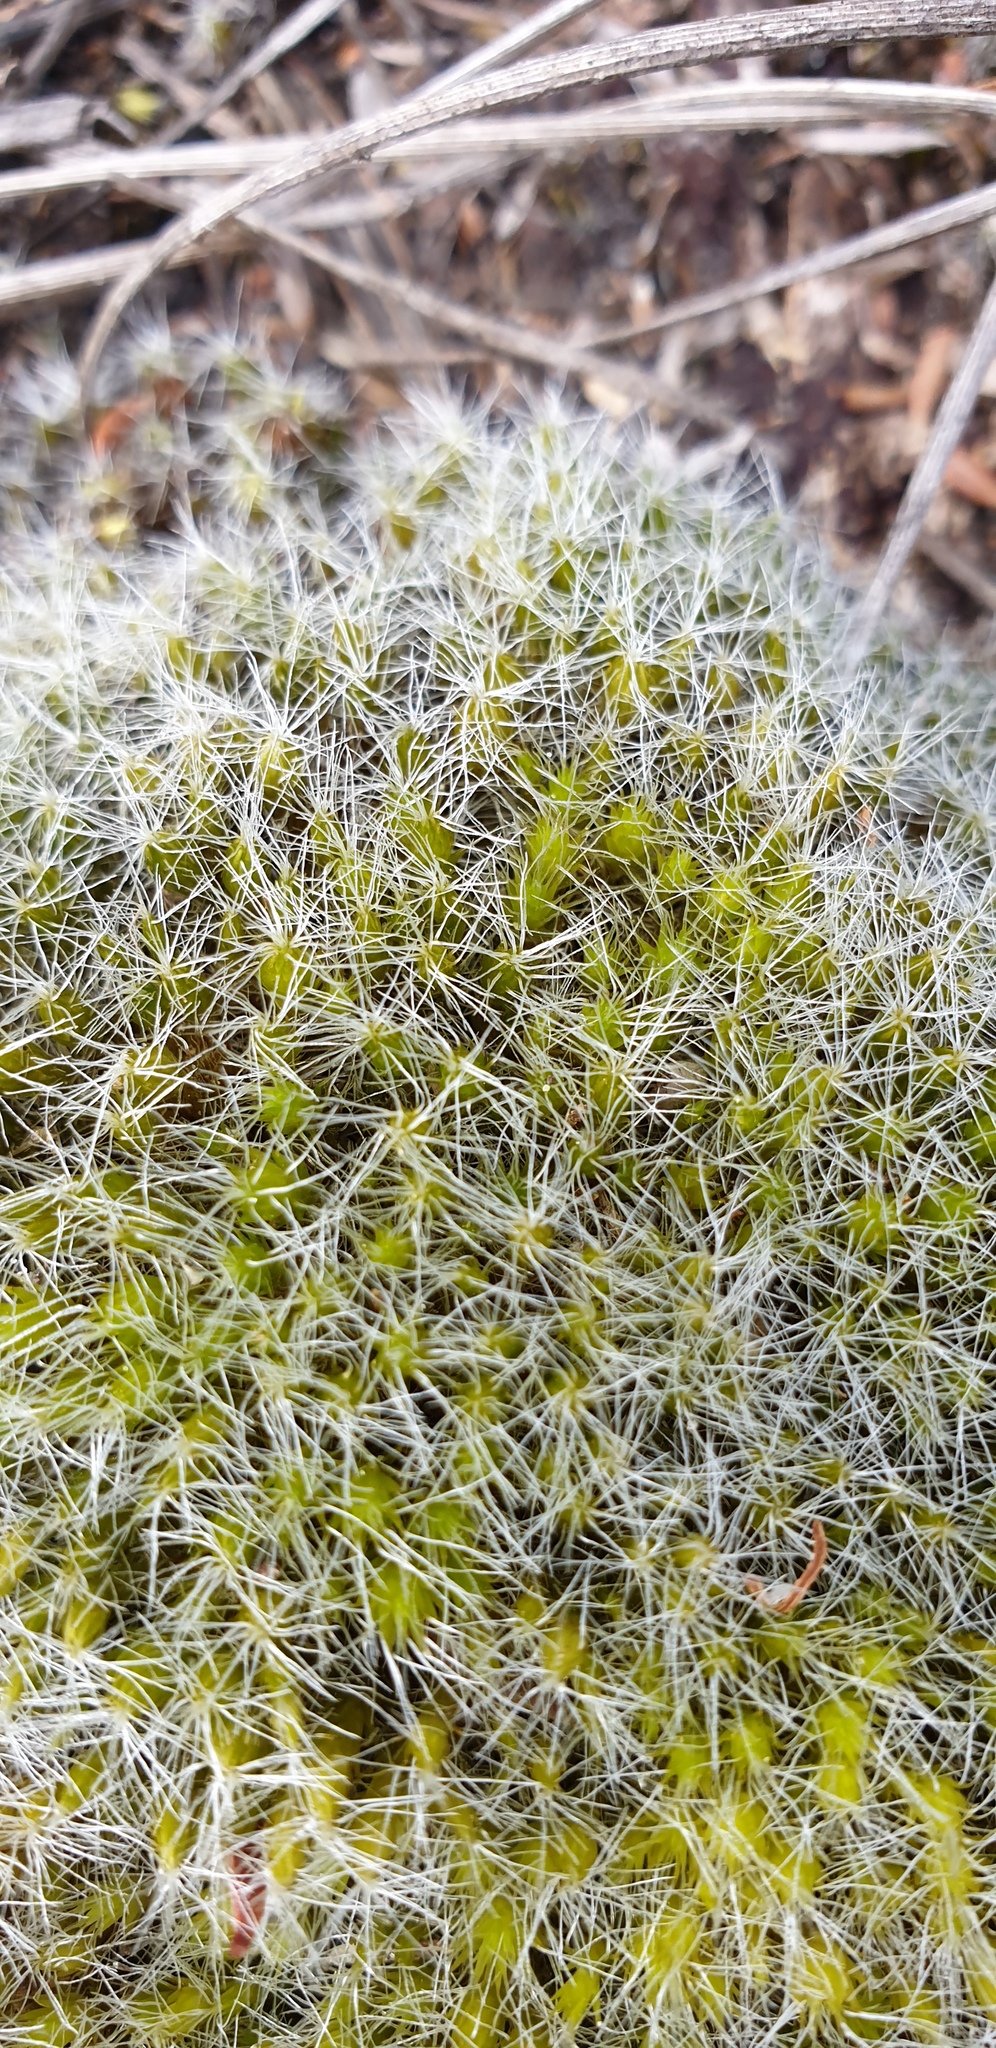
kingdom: Plantae
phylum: Bryophyta
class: Bryopsida
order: Dicranales
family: Leucobryaceae
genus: Campylopus
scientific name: Campylopus introflexus
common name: Heath star moss
